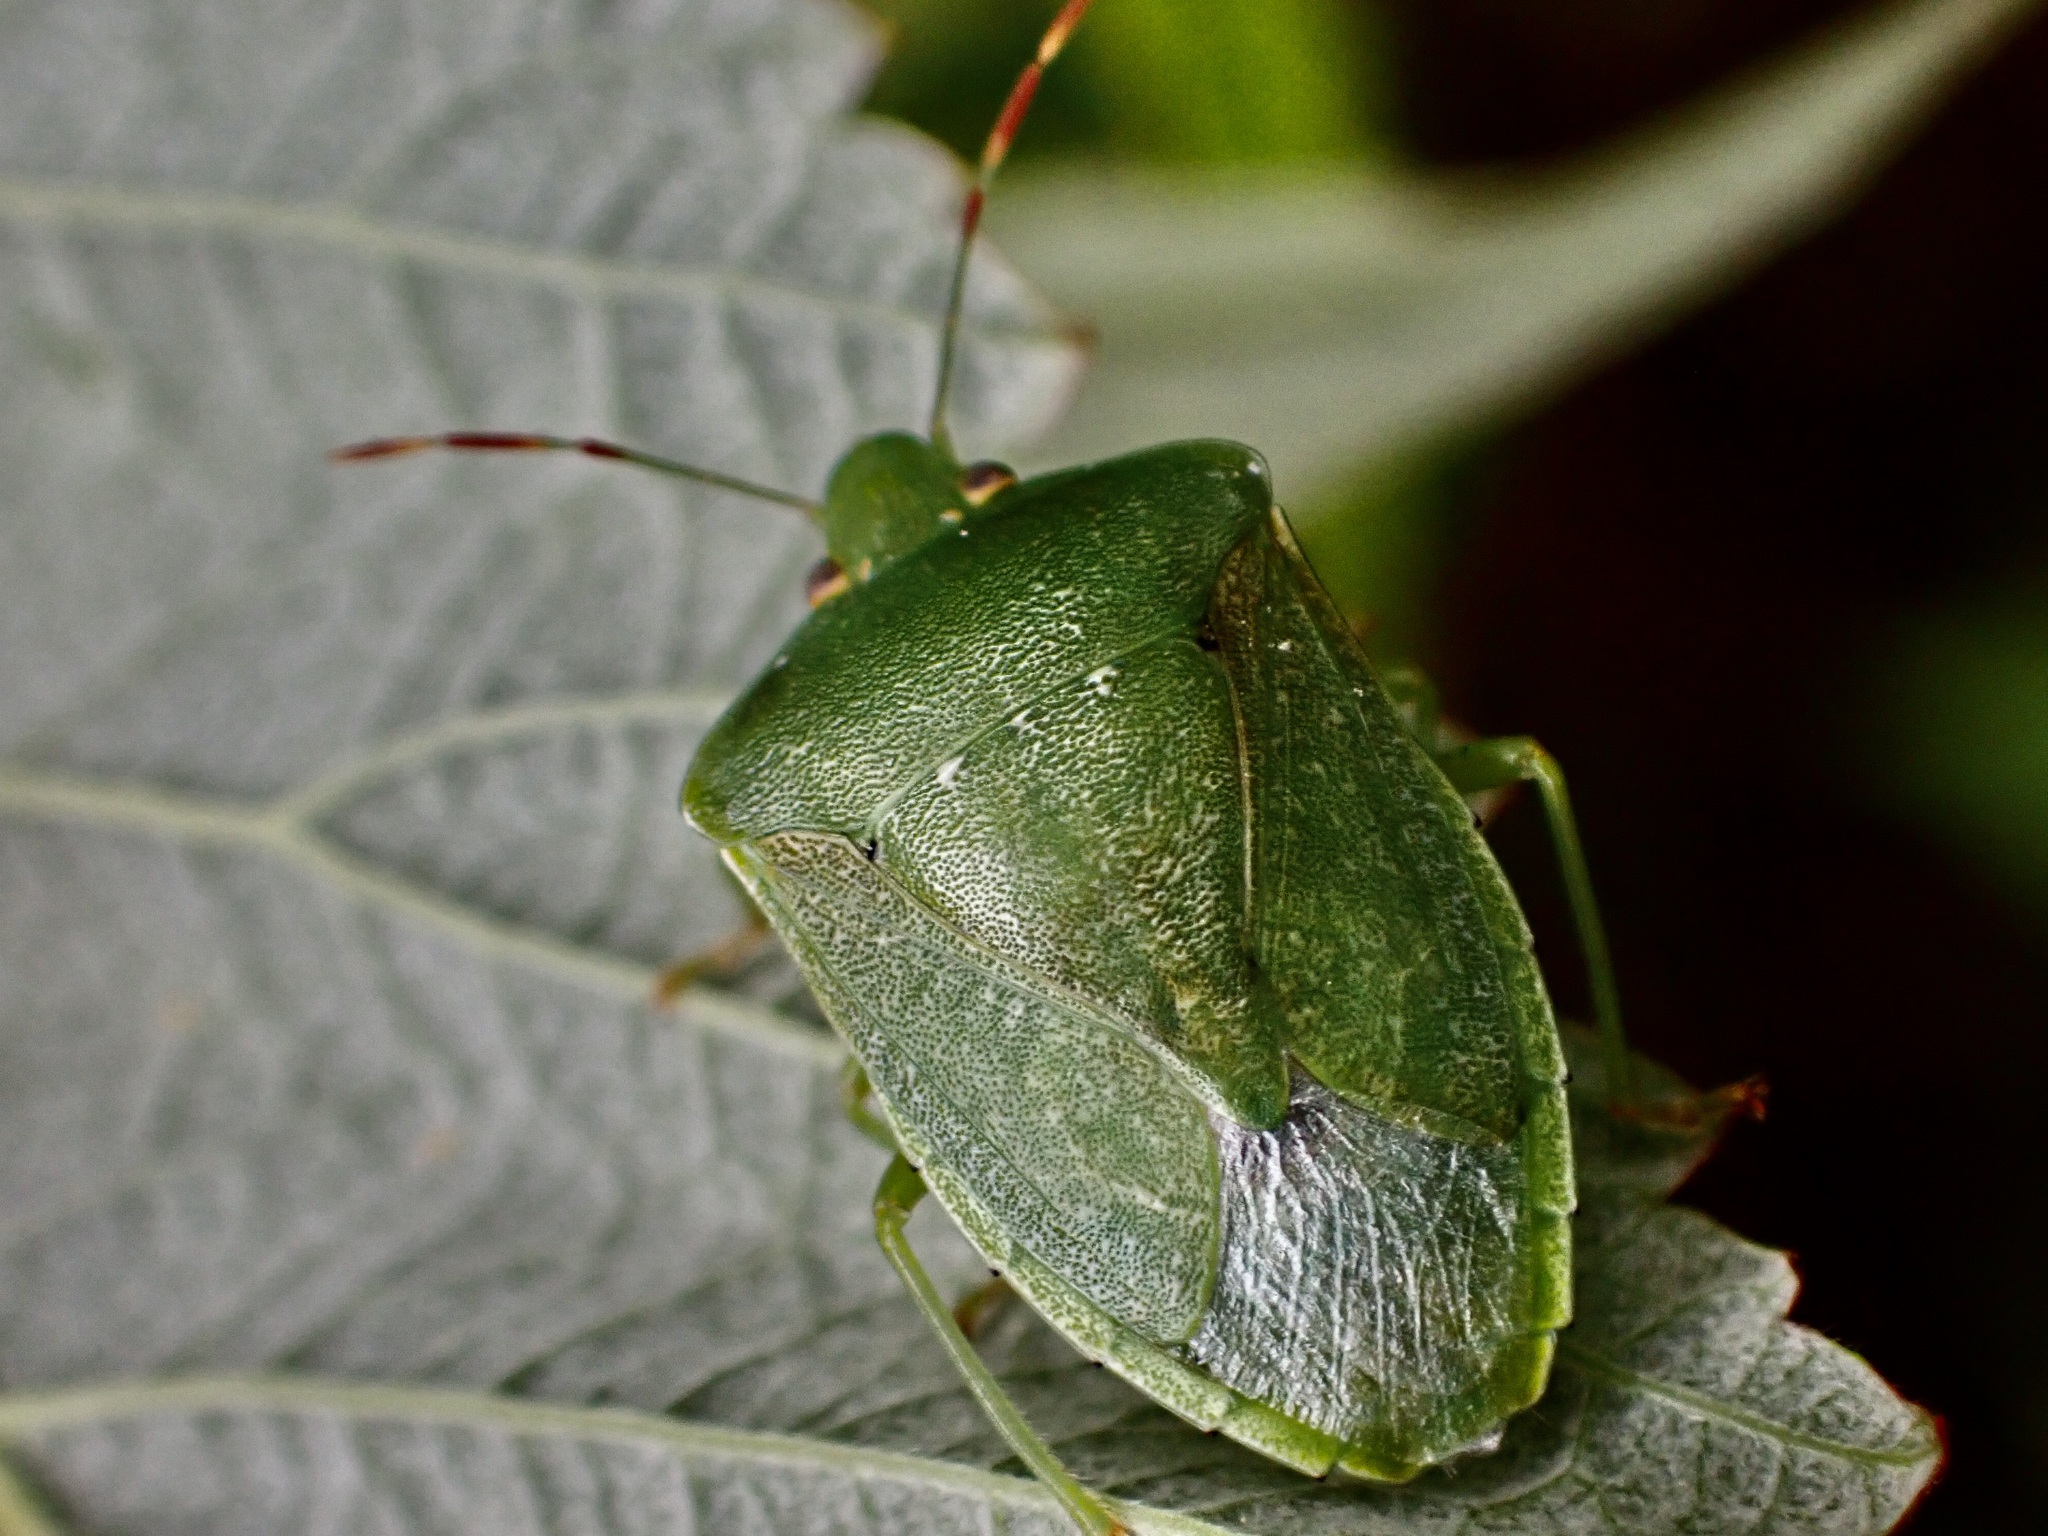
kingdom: Animalia
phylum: Arthropoda
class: Insecta
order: Hemiptera
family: Pentatomidae
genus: Nezara
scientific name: Nezara viridula
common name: Southern green stink bug
